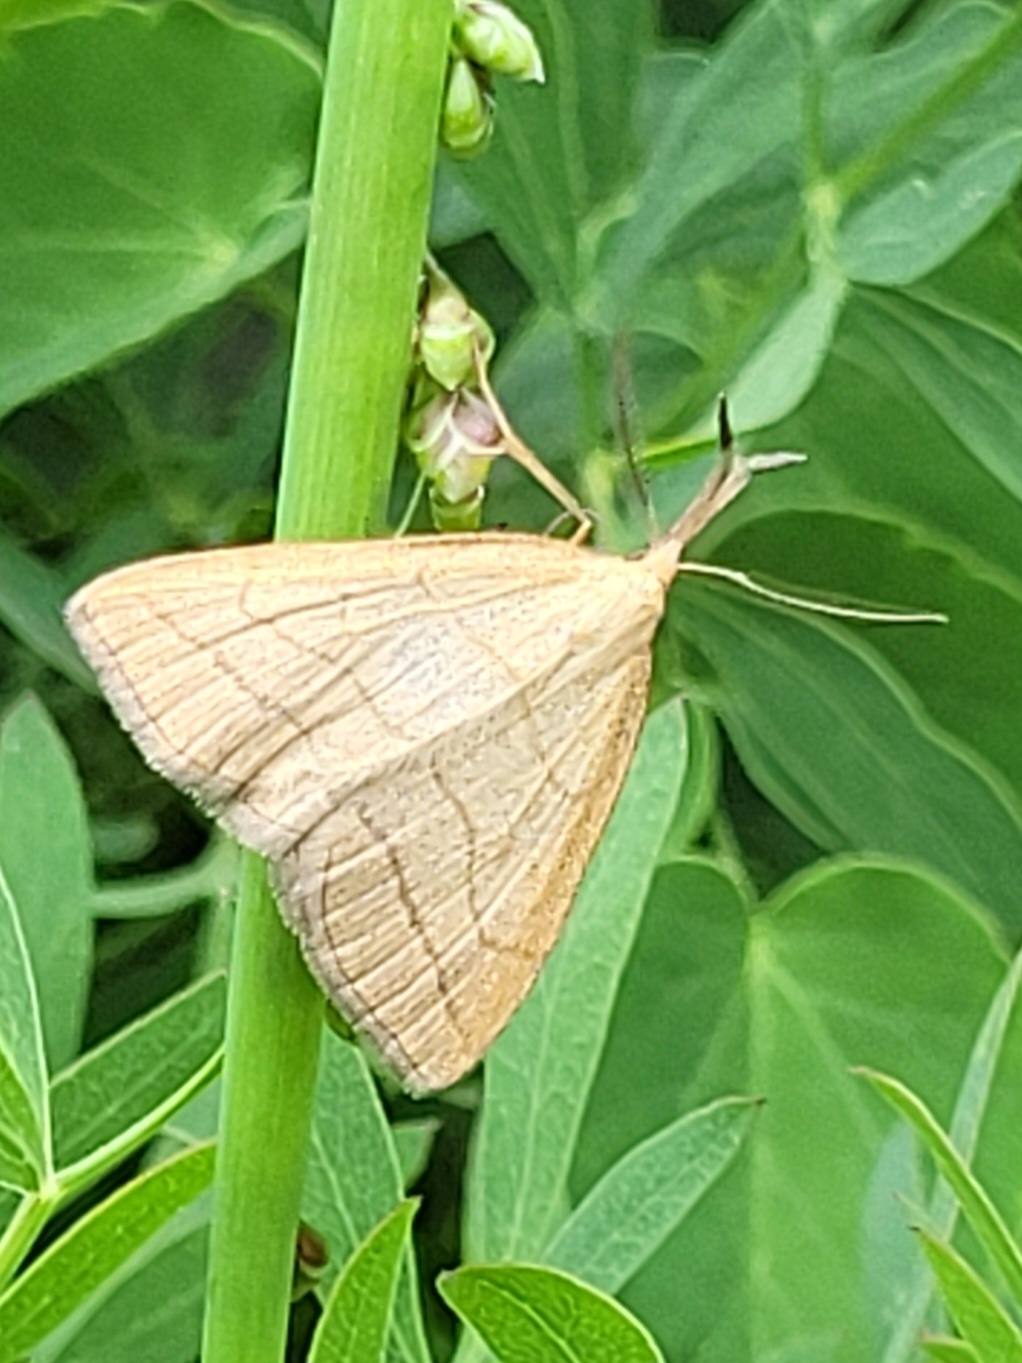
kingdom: Animalia
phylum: Arthropoda
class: Insecta
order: Lepidoptera
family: Erebidae
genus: Polypogon
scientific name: Polypogon tentacularia
